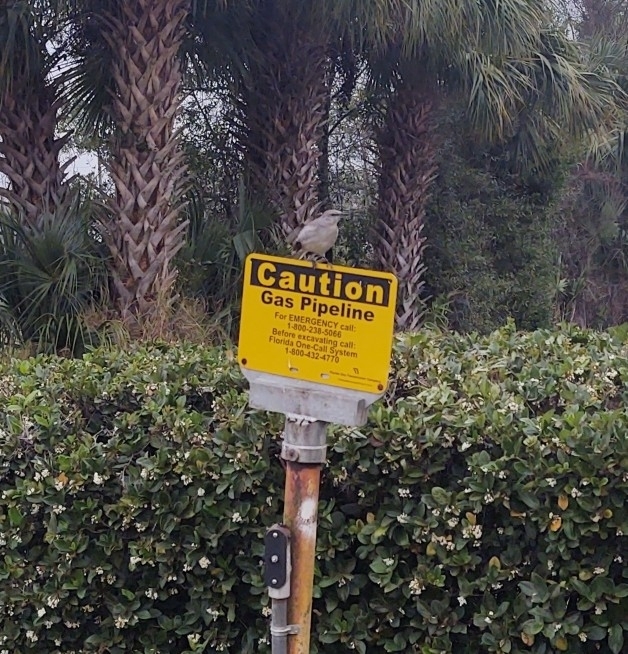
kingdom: Animalia
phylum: Chordata
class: Aves
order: Passeriformes
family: Mimidae
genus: Mimus
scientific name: Mimus polyglottos
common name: Northern mockingbird
